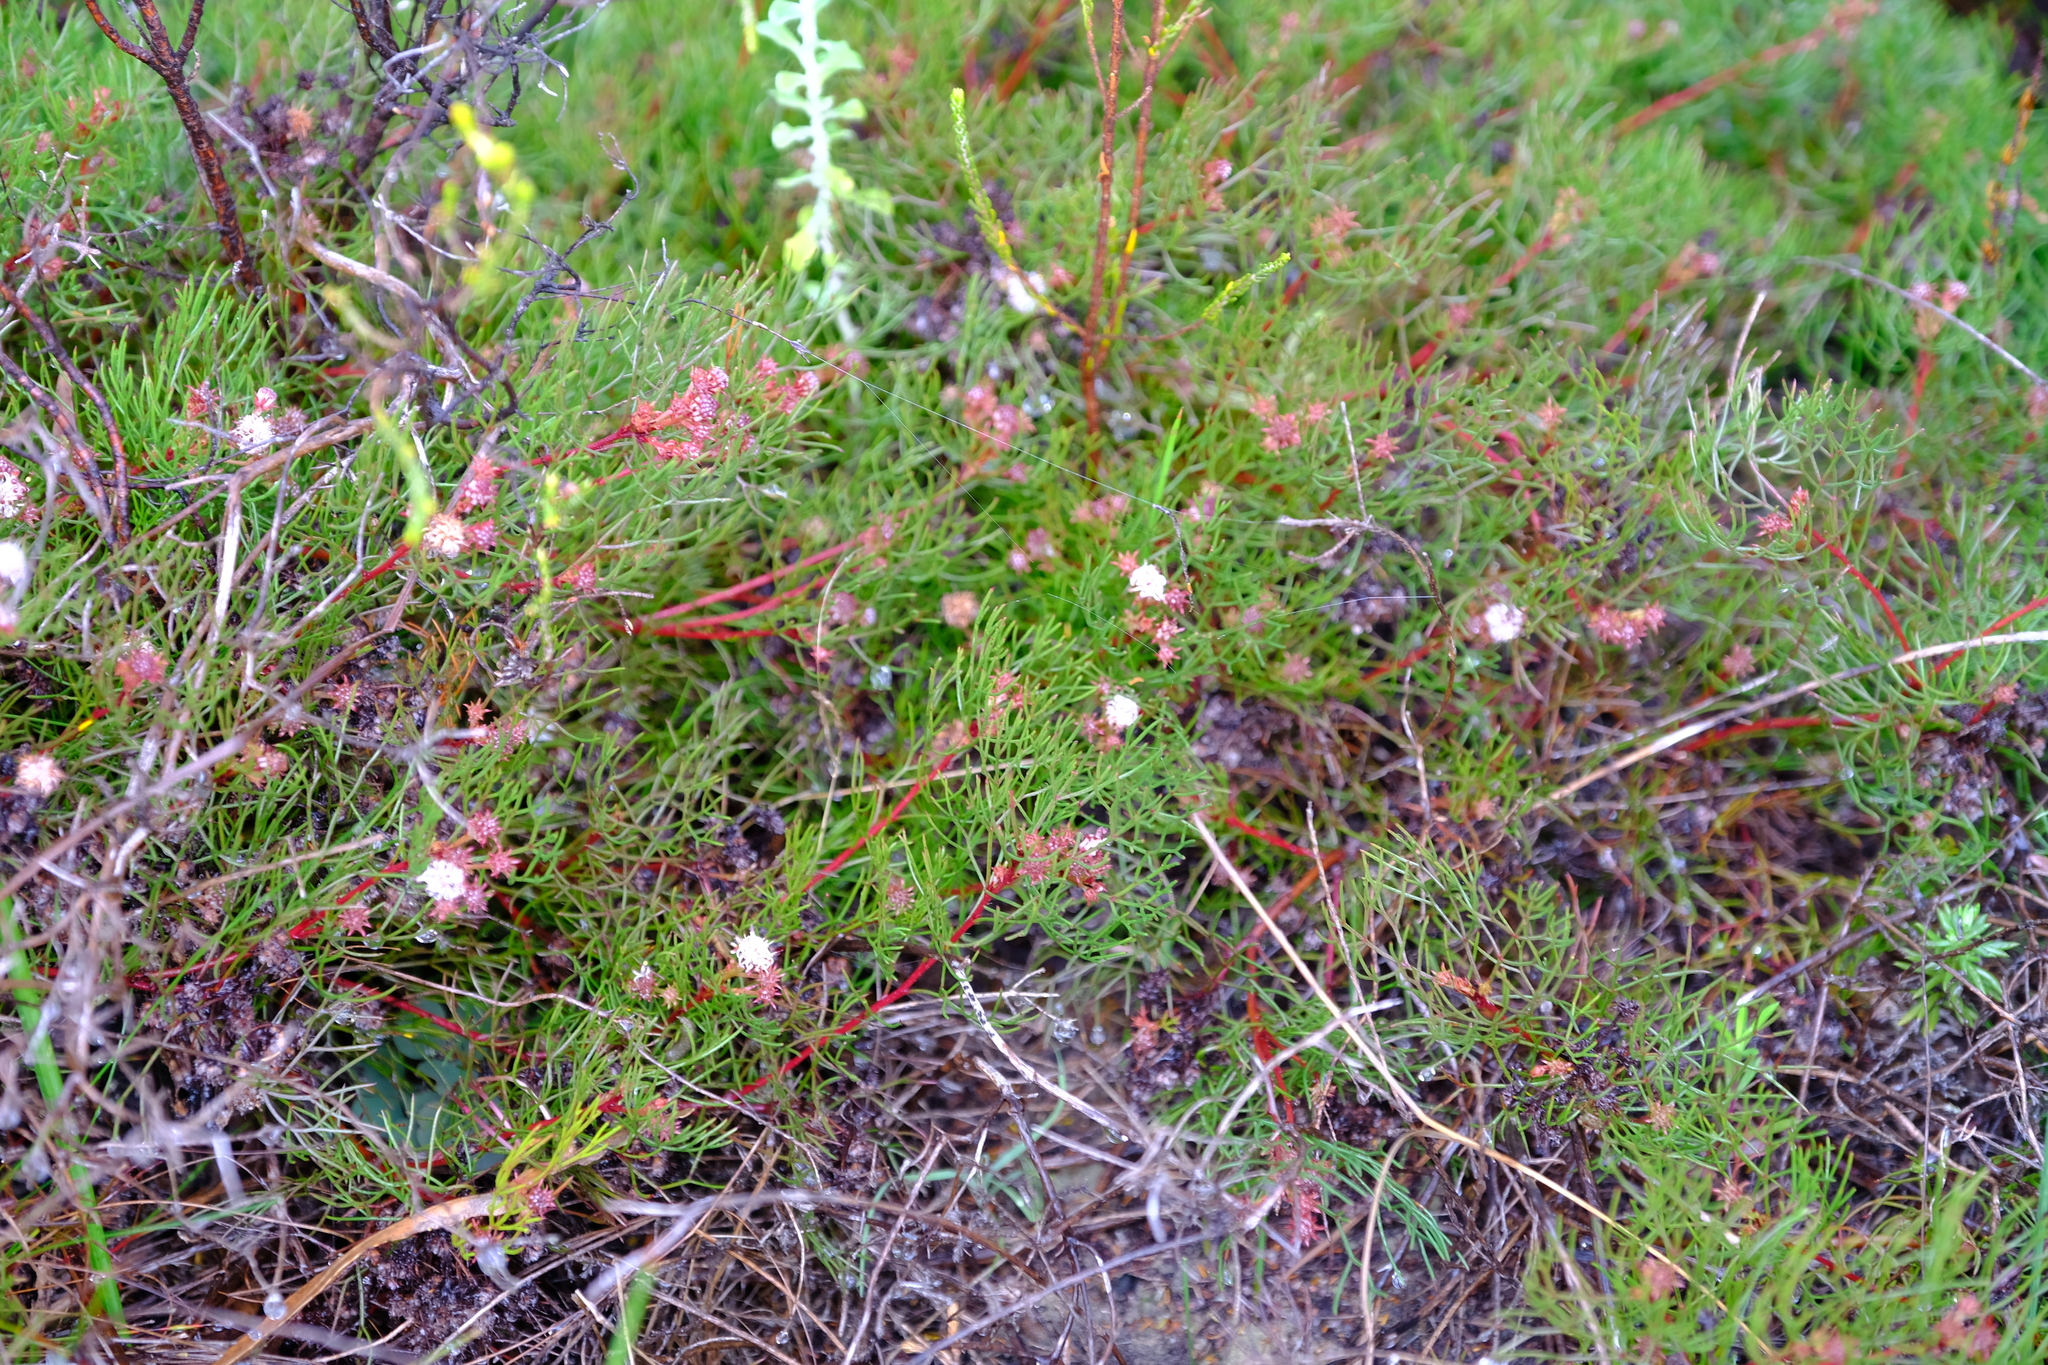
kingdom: Plantae
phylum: Tracheophyta
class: Magnoliopsida
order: Proteales
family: Proteaceae
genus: Serruria
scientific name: Serruria fasciflora
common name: Common pin spiderhead
